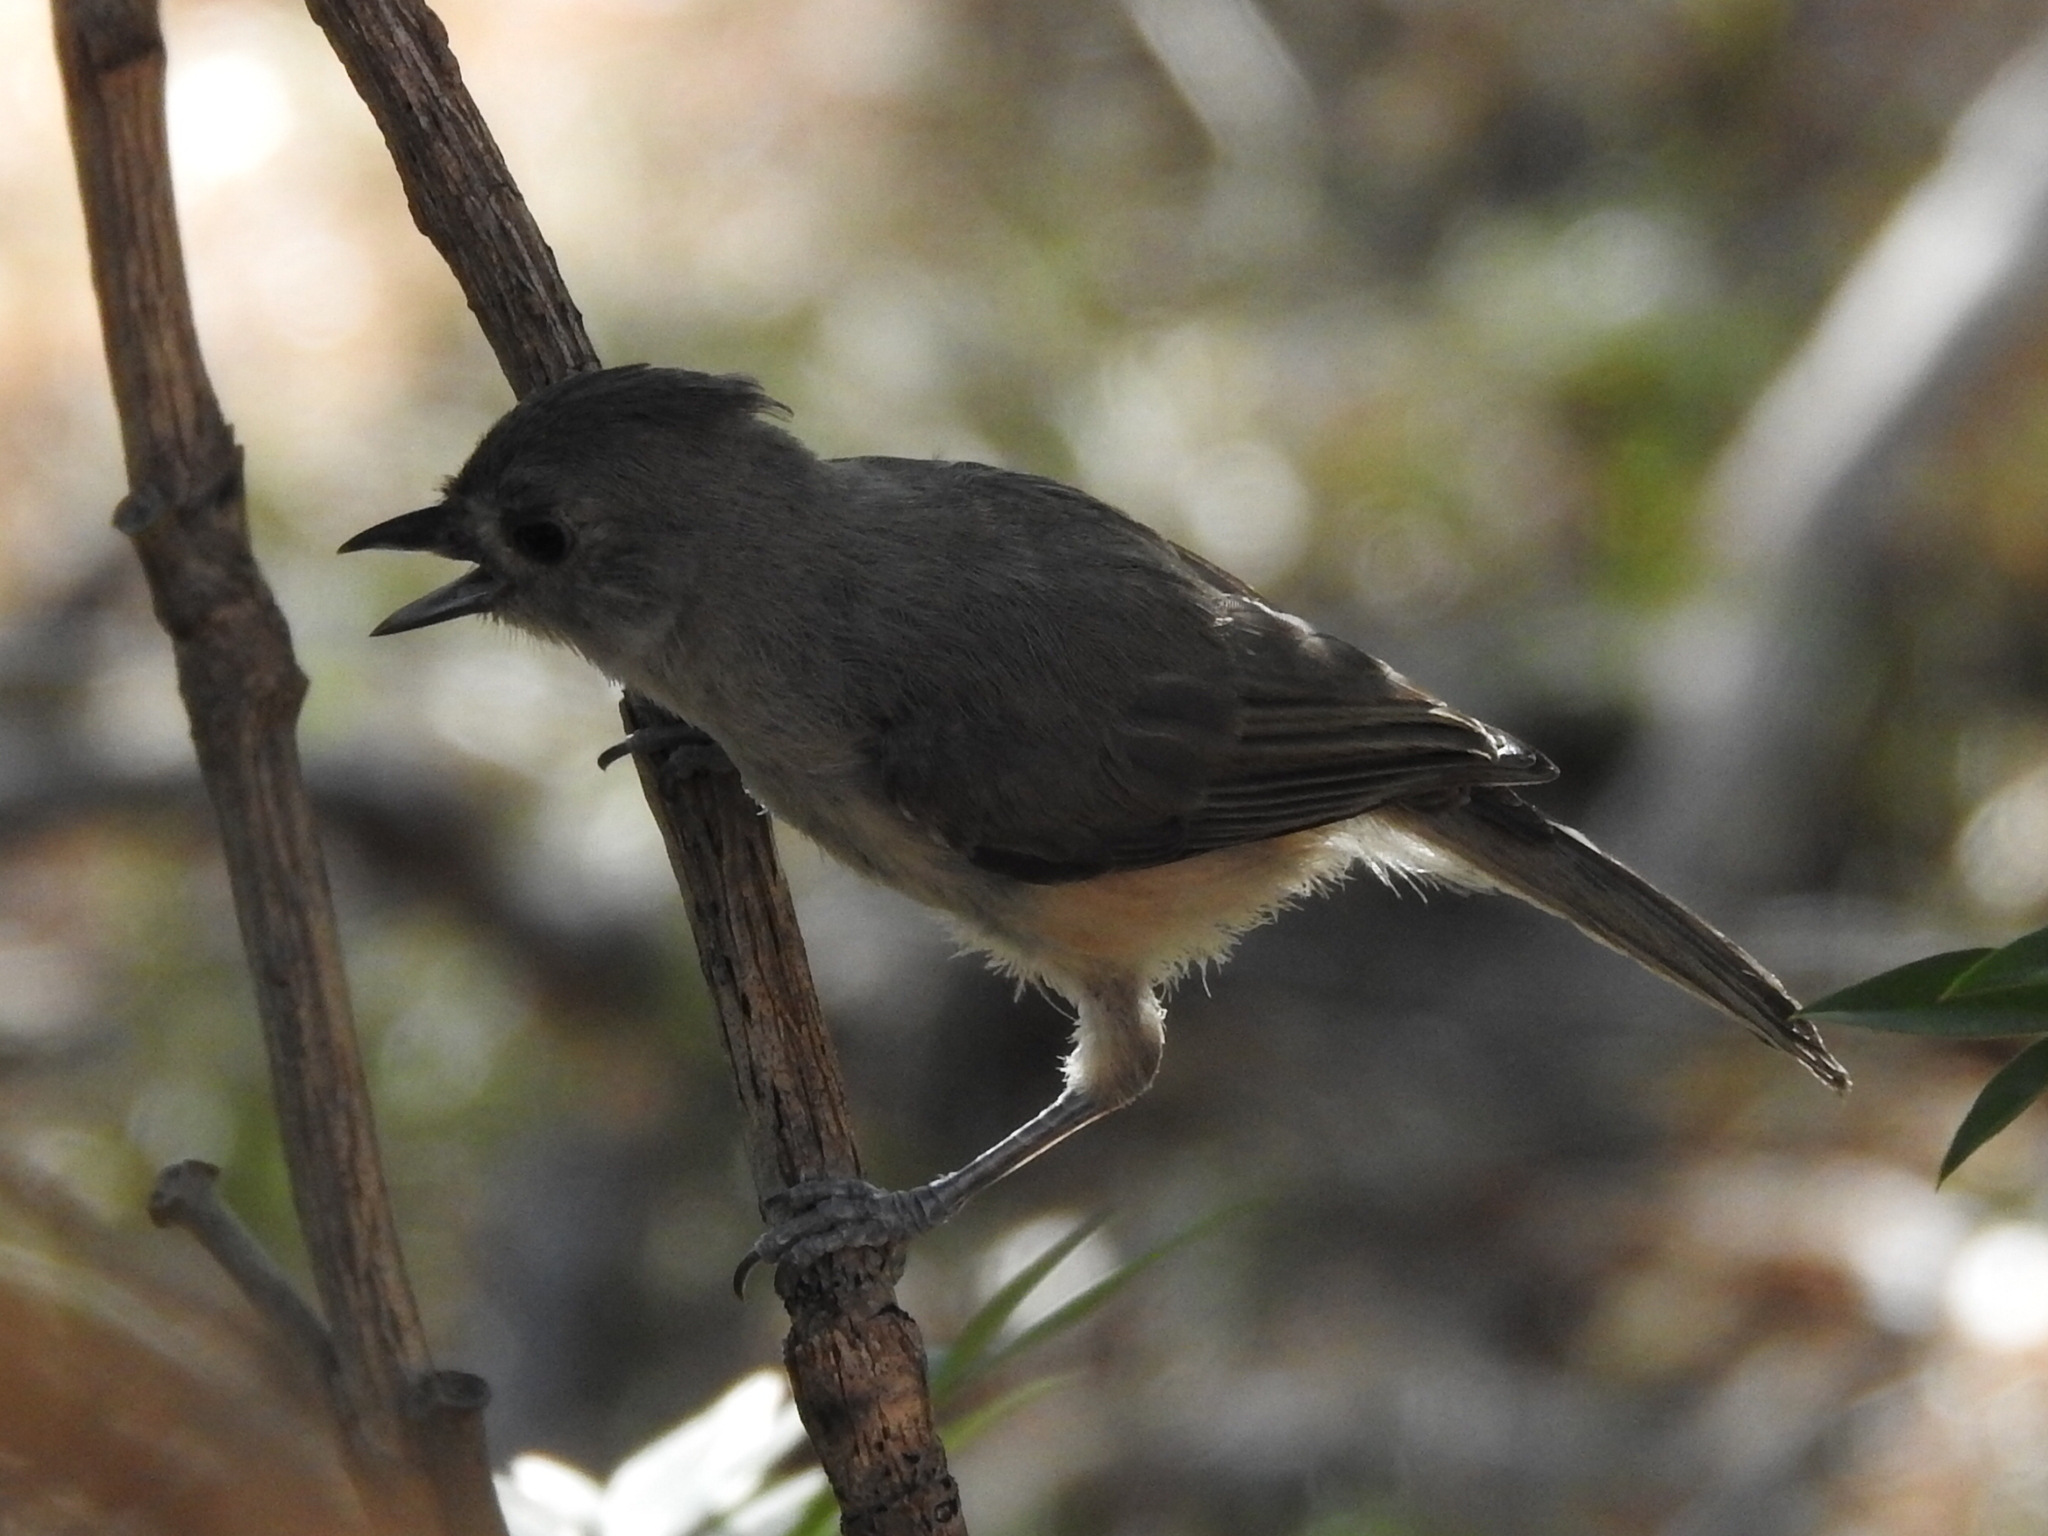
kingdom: Animalia
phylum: Chordata
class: Aves
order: Passeriformes
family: Paridae
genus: Baeolophus
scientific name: Baeolophus
